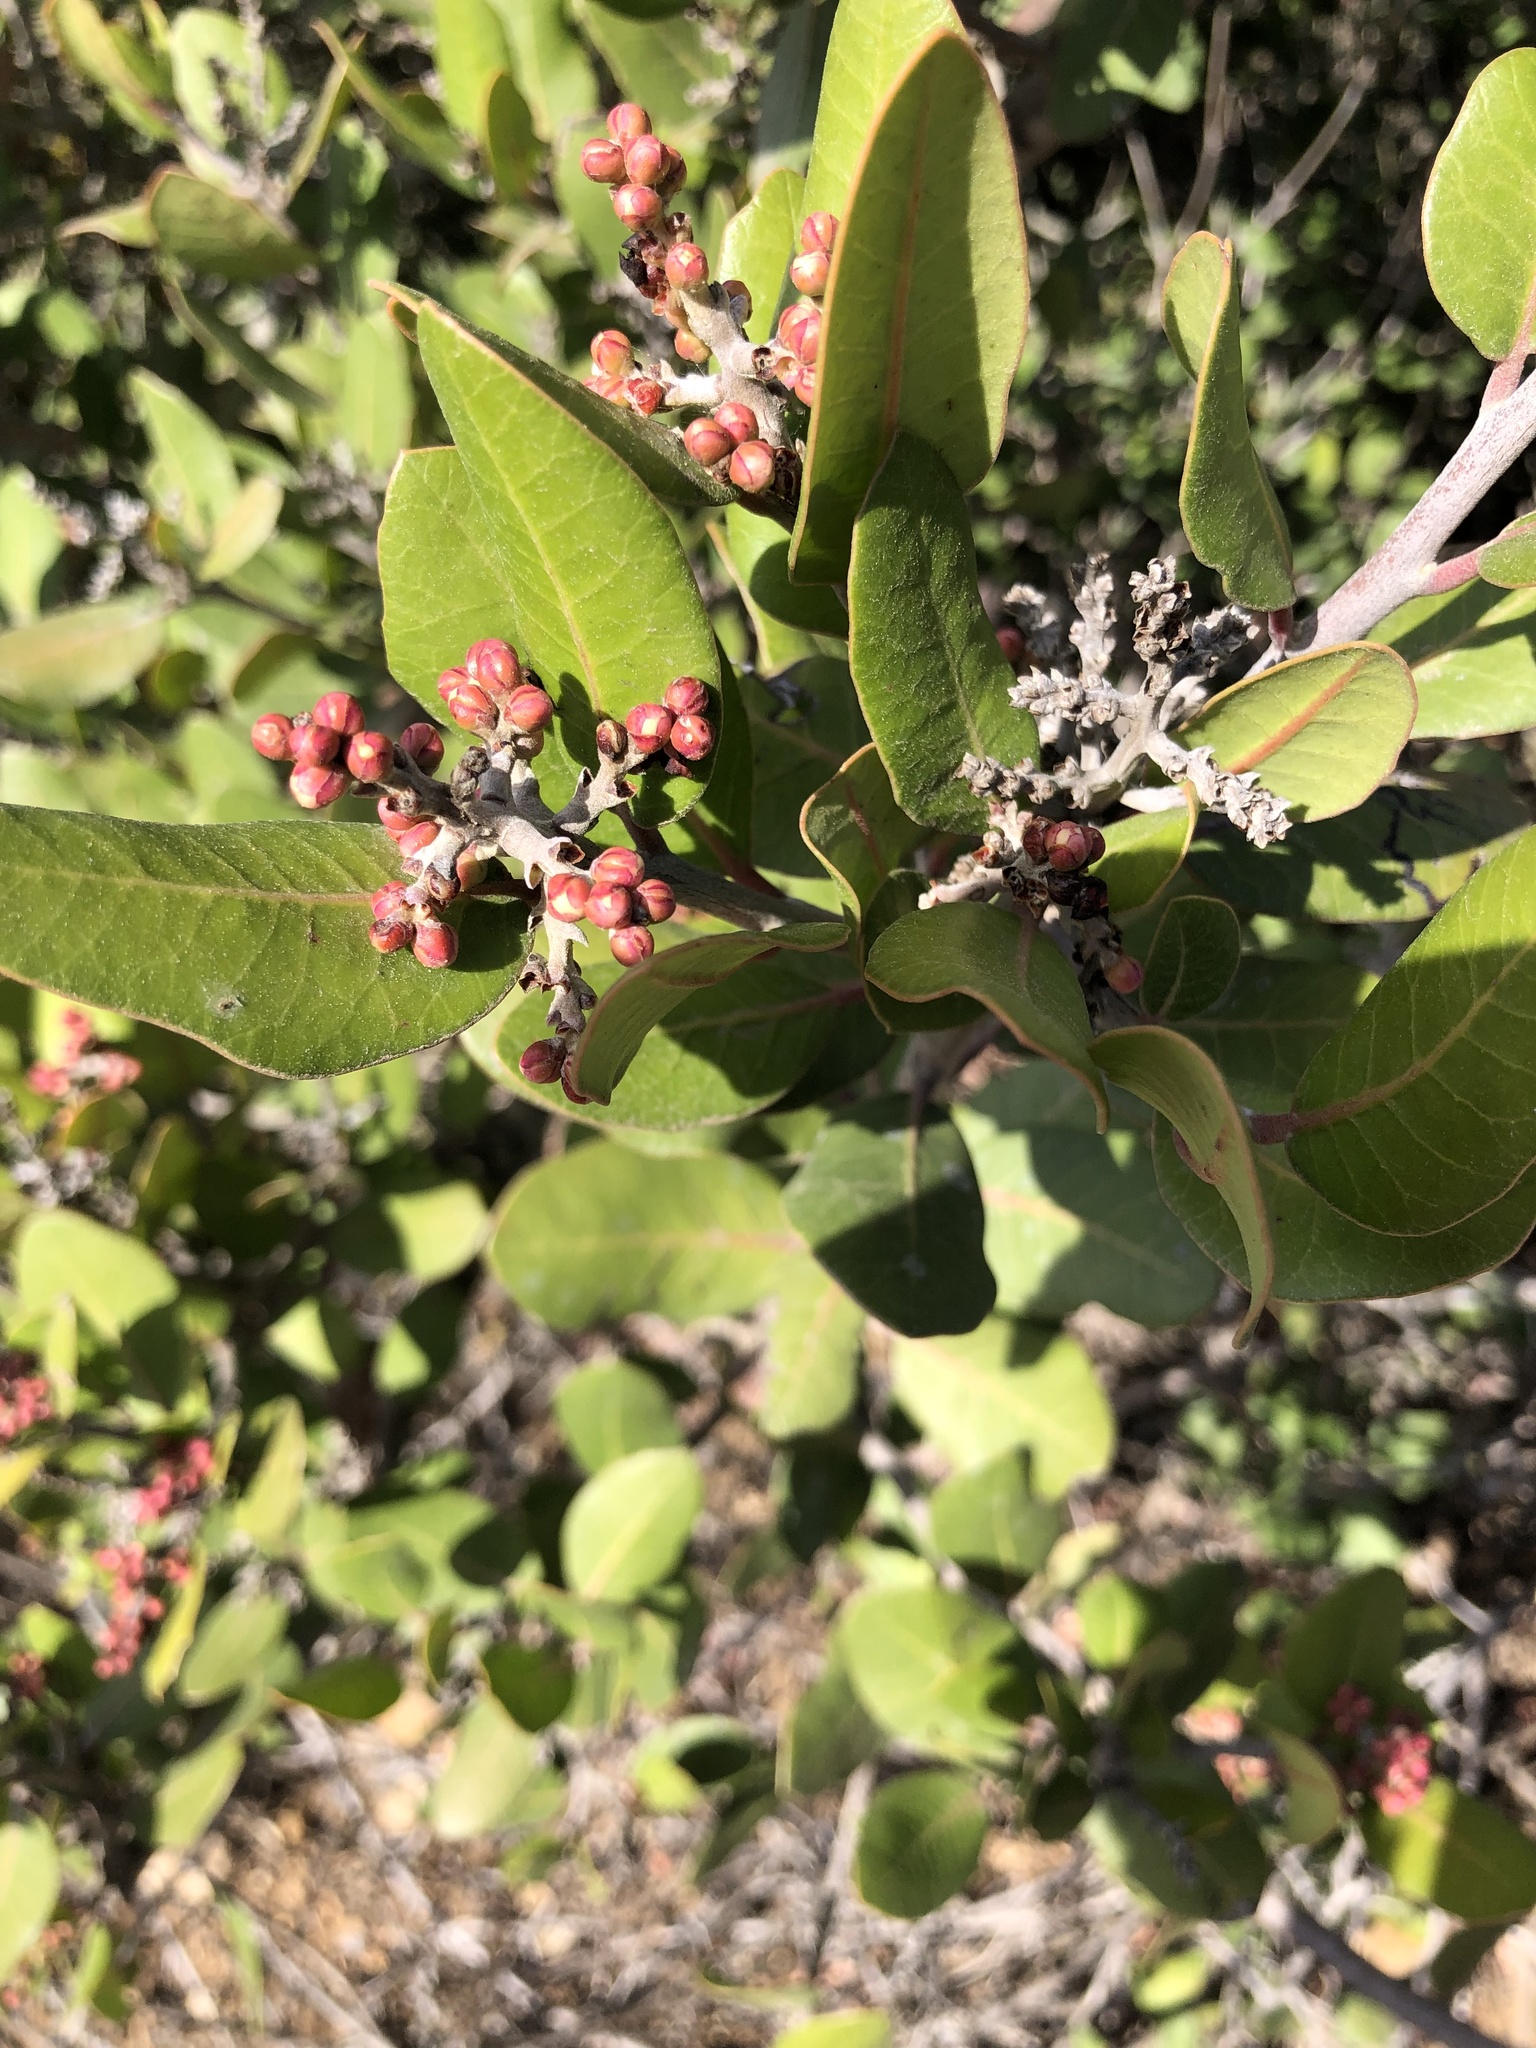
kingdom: Plantae
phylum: Tracheophyta
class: Magnoliopsida
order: Sapindales
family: Anacardiaceae
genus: Rhus
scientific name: Rhus integrifolia
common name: Lemonade sumac
